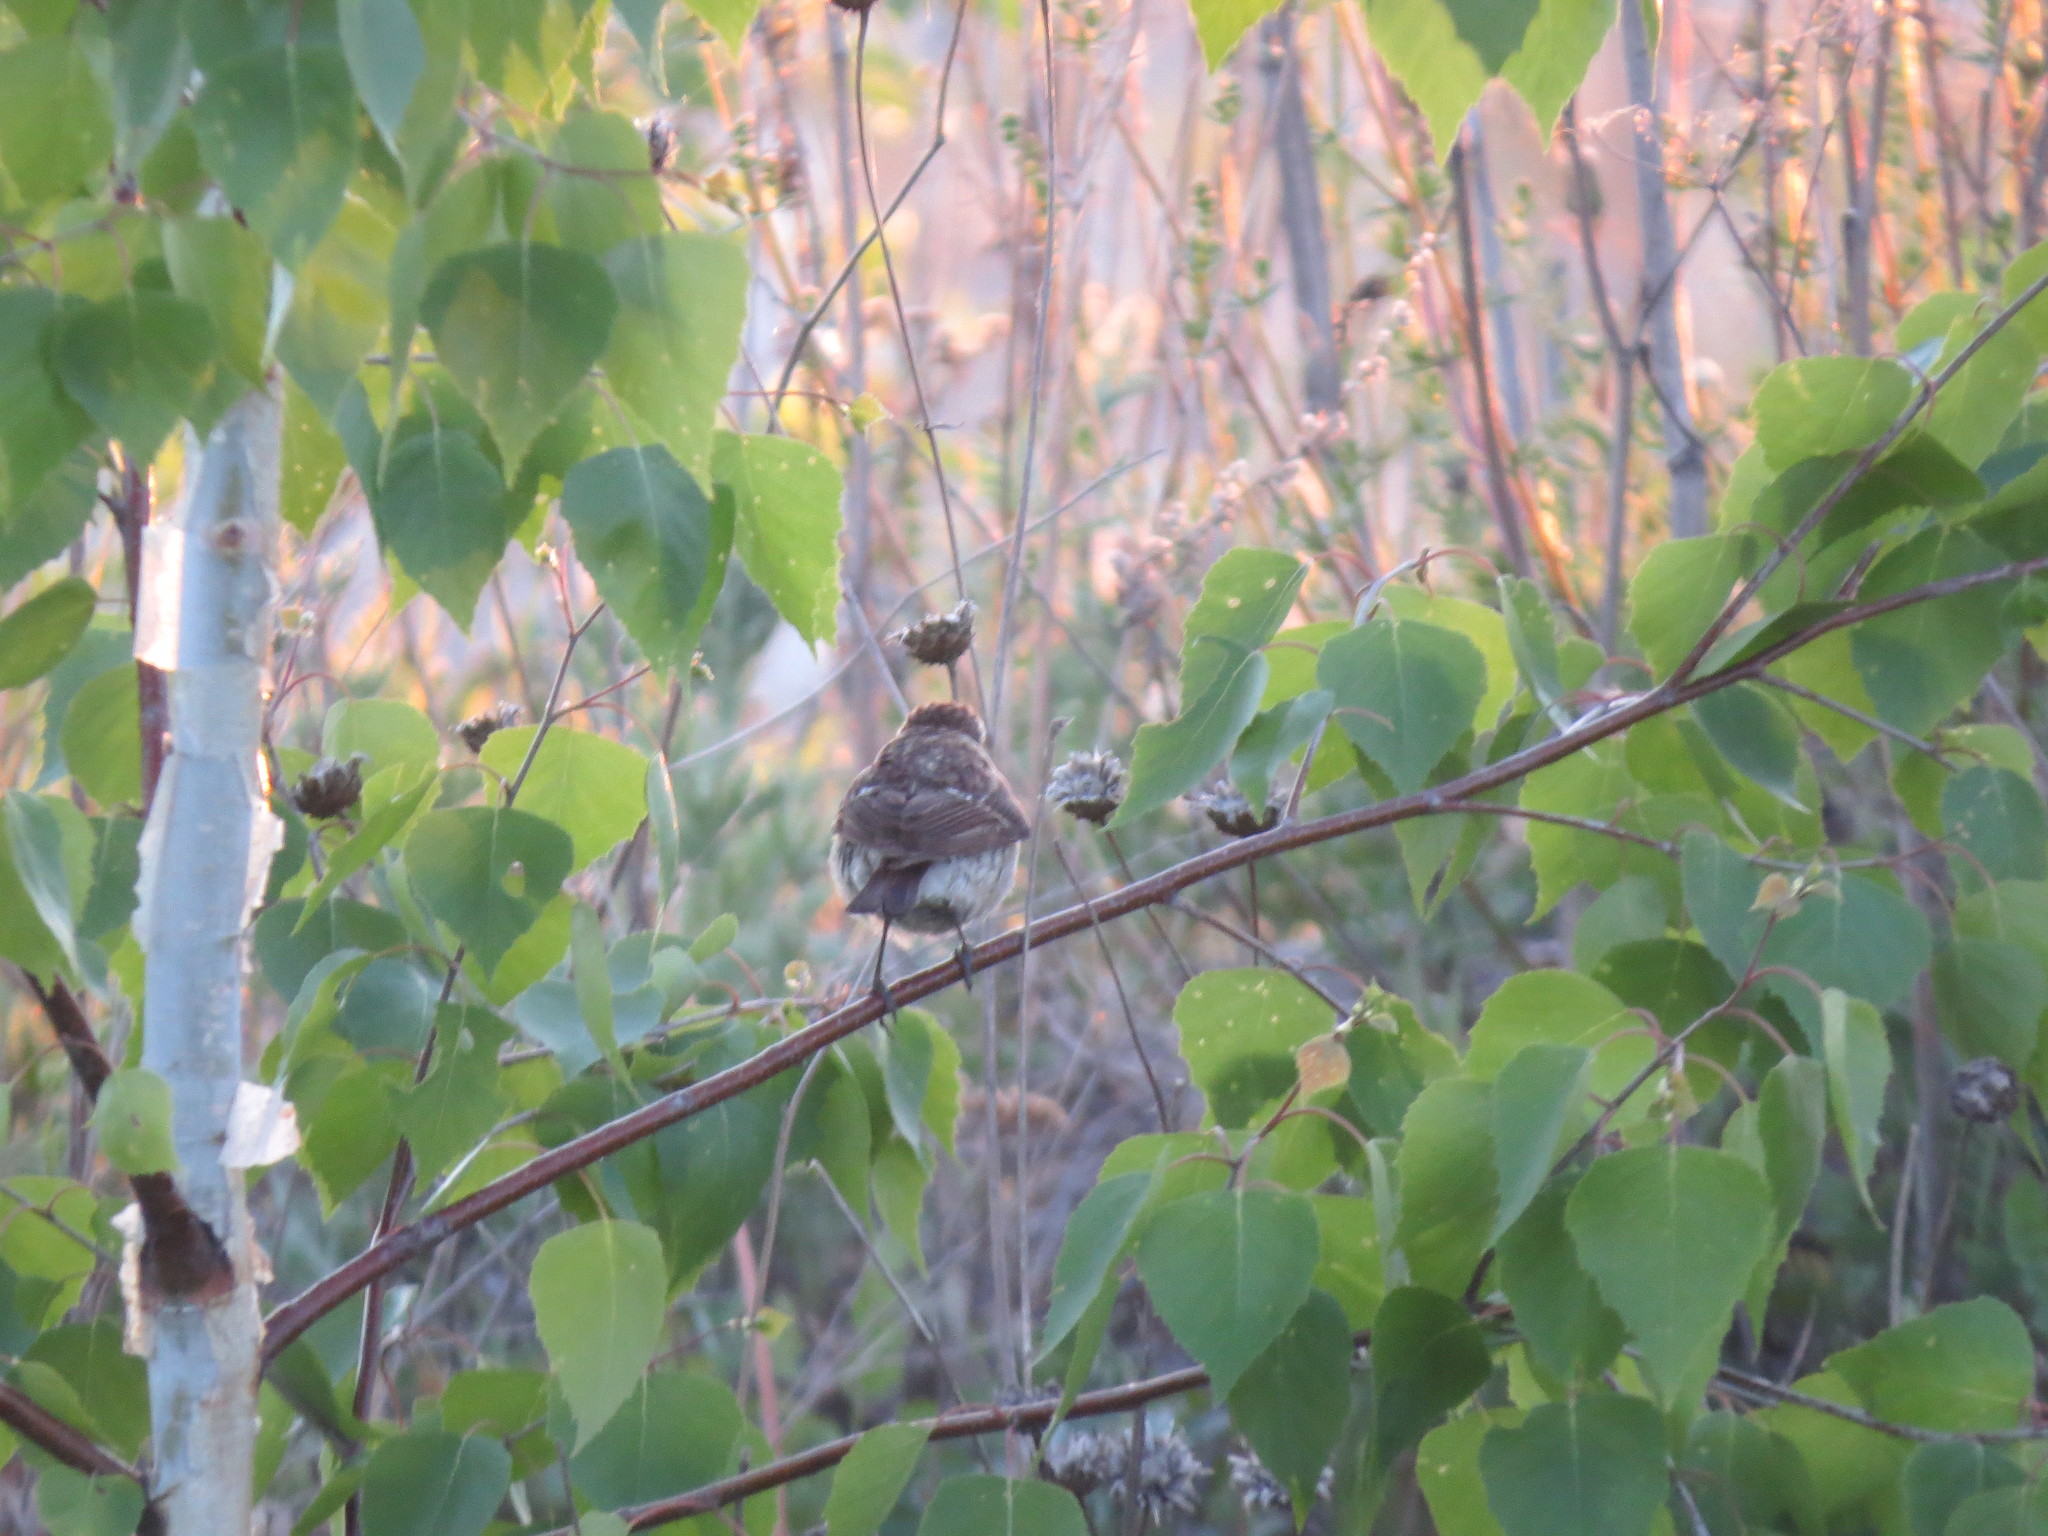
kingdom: Animalia
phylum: Chordata
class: Aves
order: Passeriformes
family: Muscicapidae
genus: Saxicola
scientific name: Saxicola maurus
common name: Siberian stonechat
